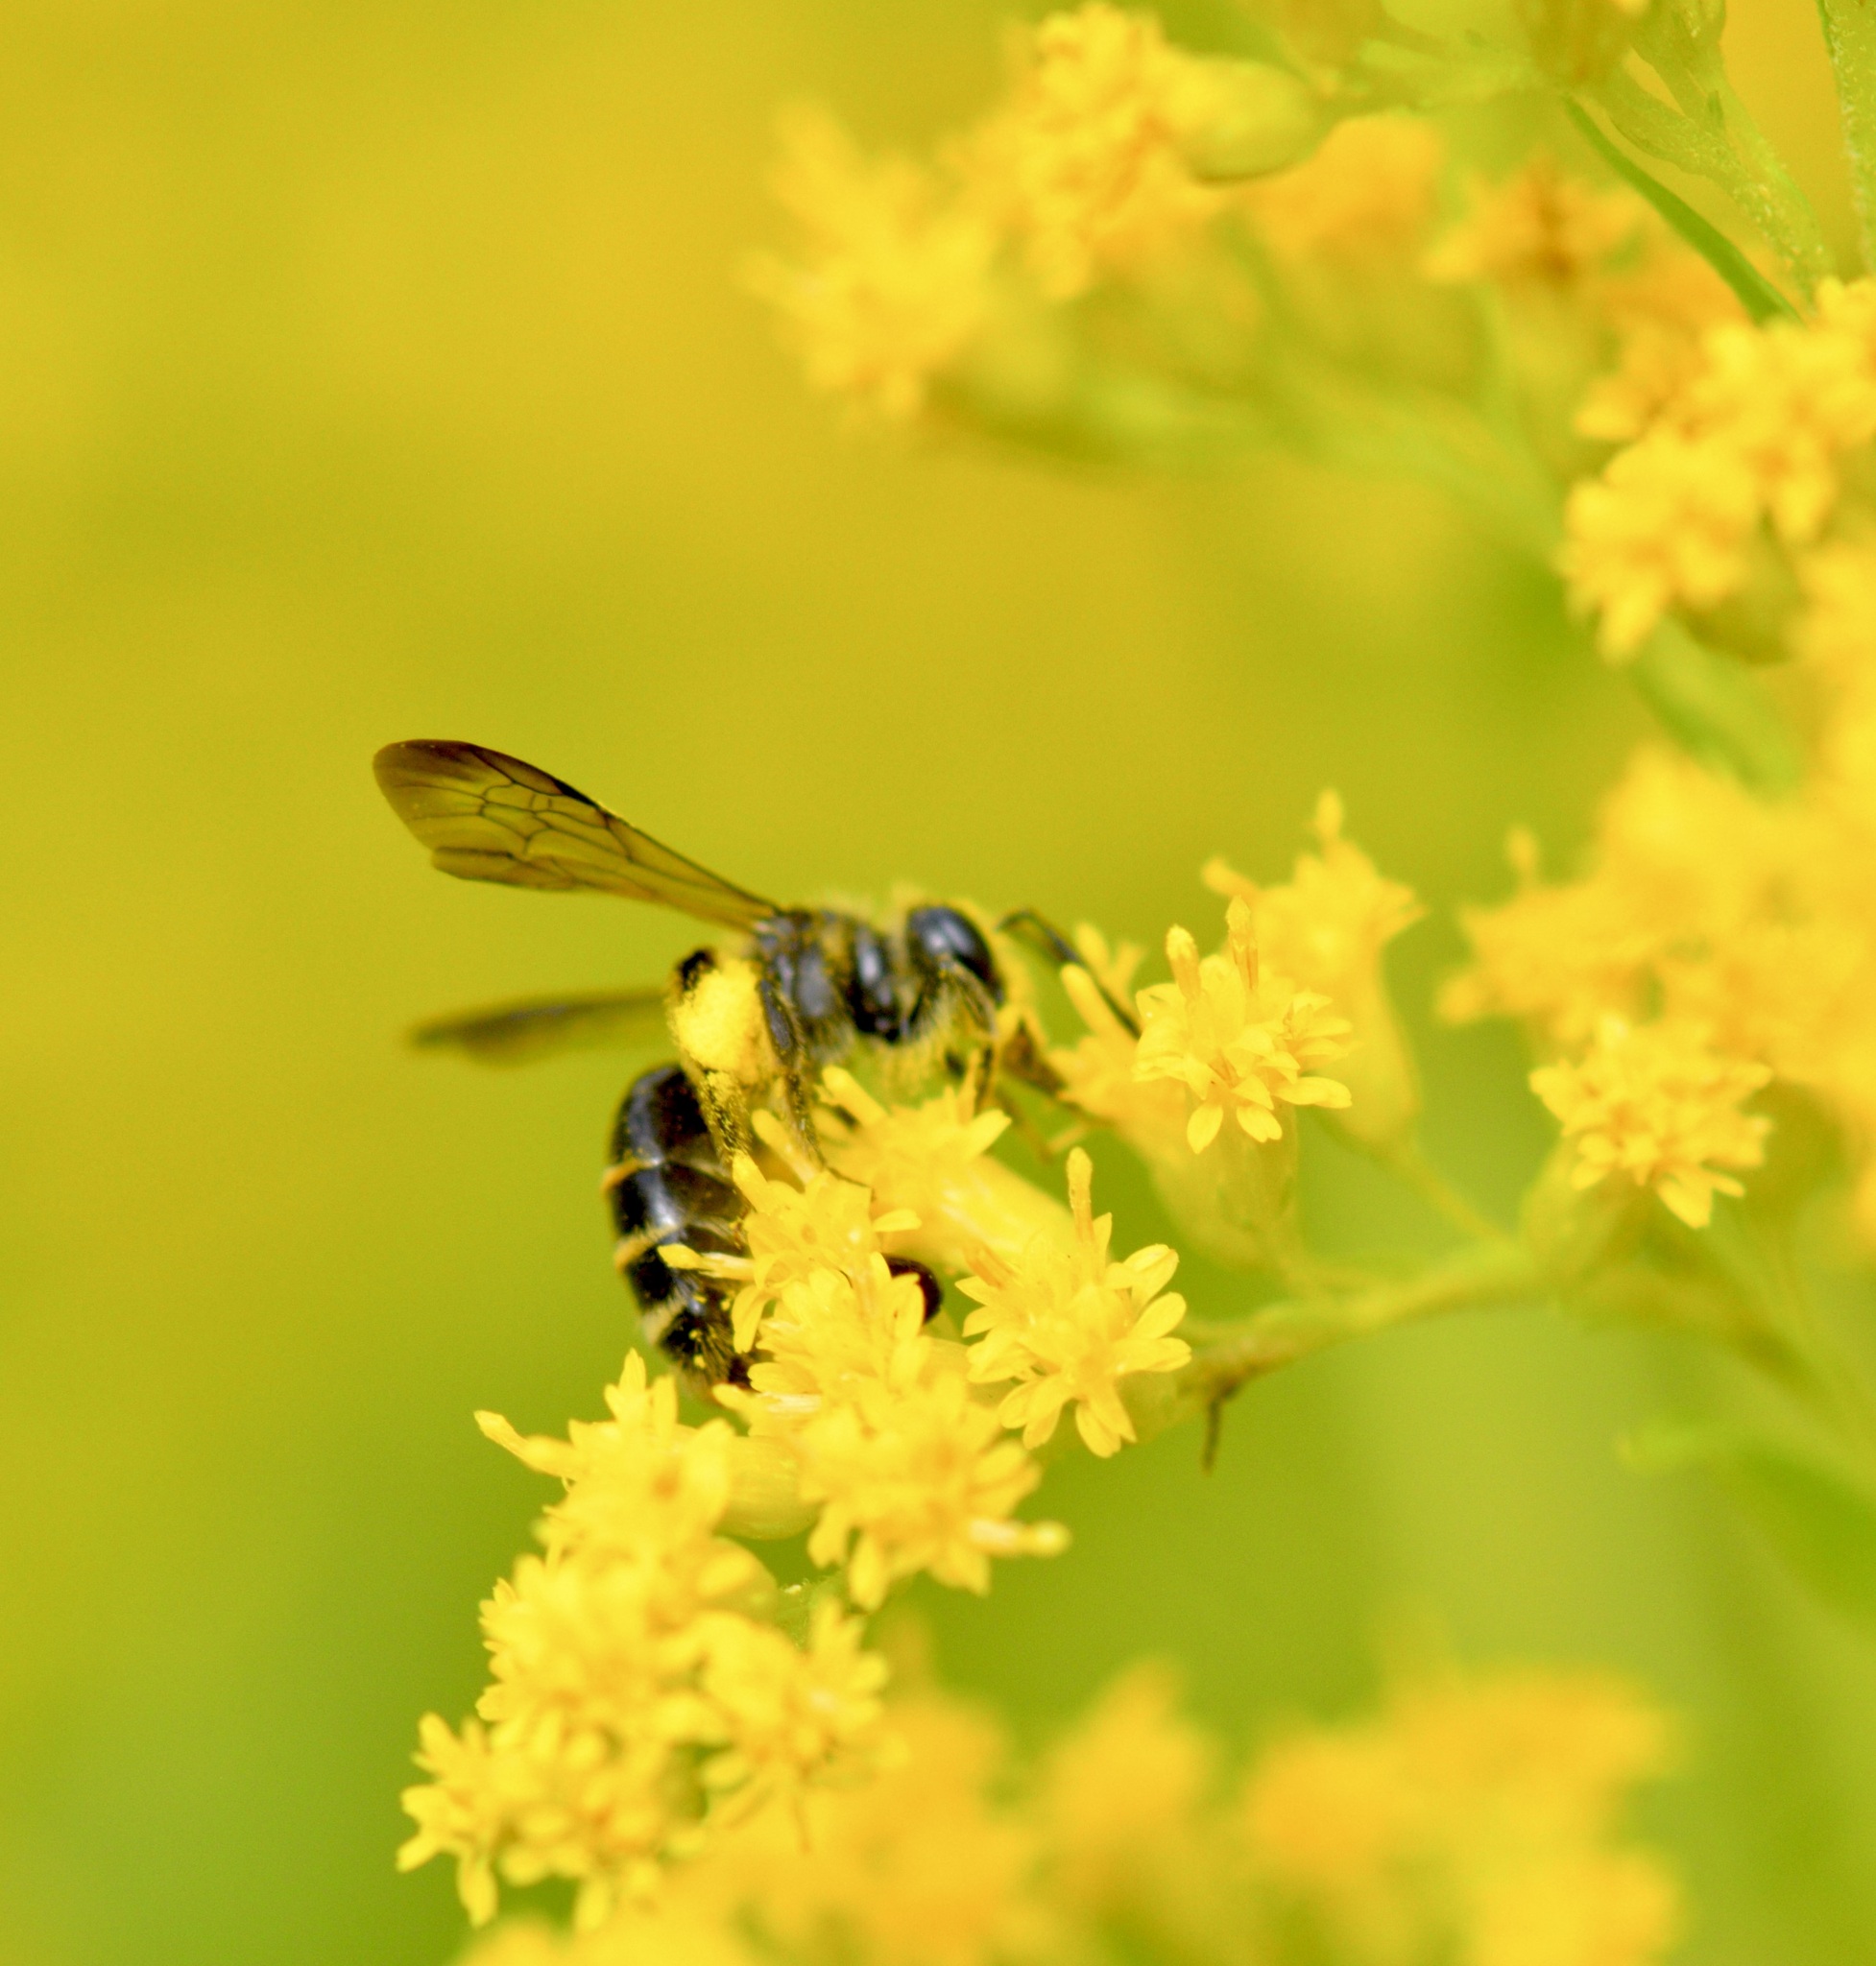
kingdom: Animalia
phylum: Arthropoda
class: Insecta
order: Hymenoptera
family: Andrenidae
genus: Andrena
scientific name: Andrena nubecula
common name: Cloudy-winged mining bee
